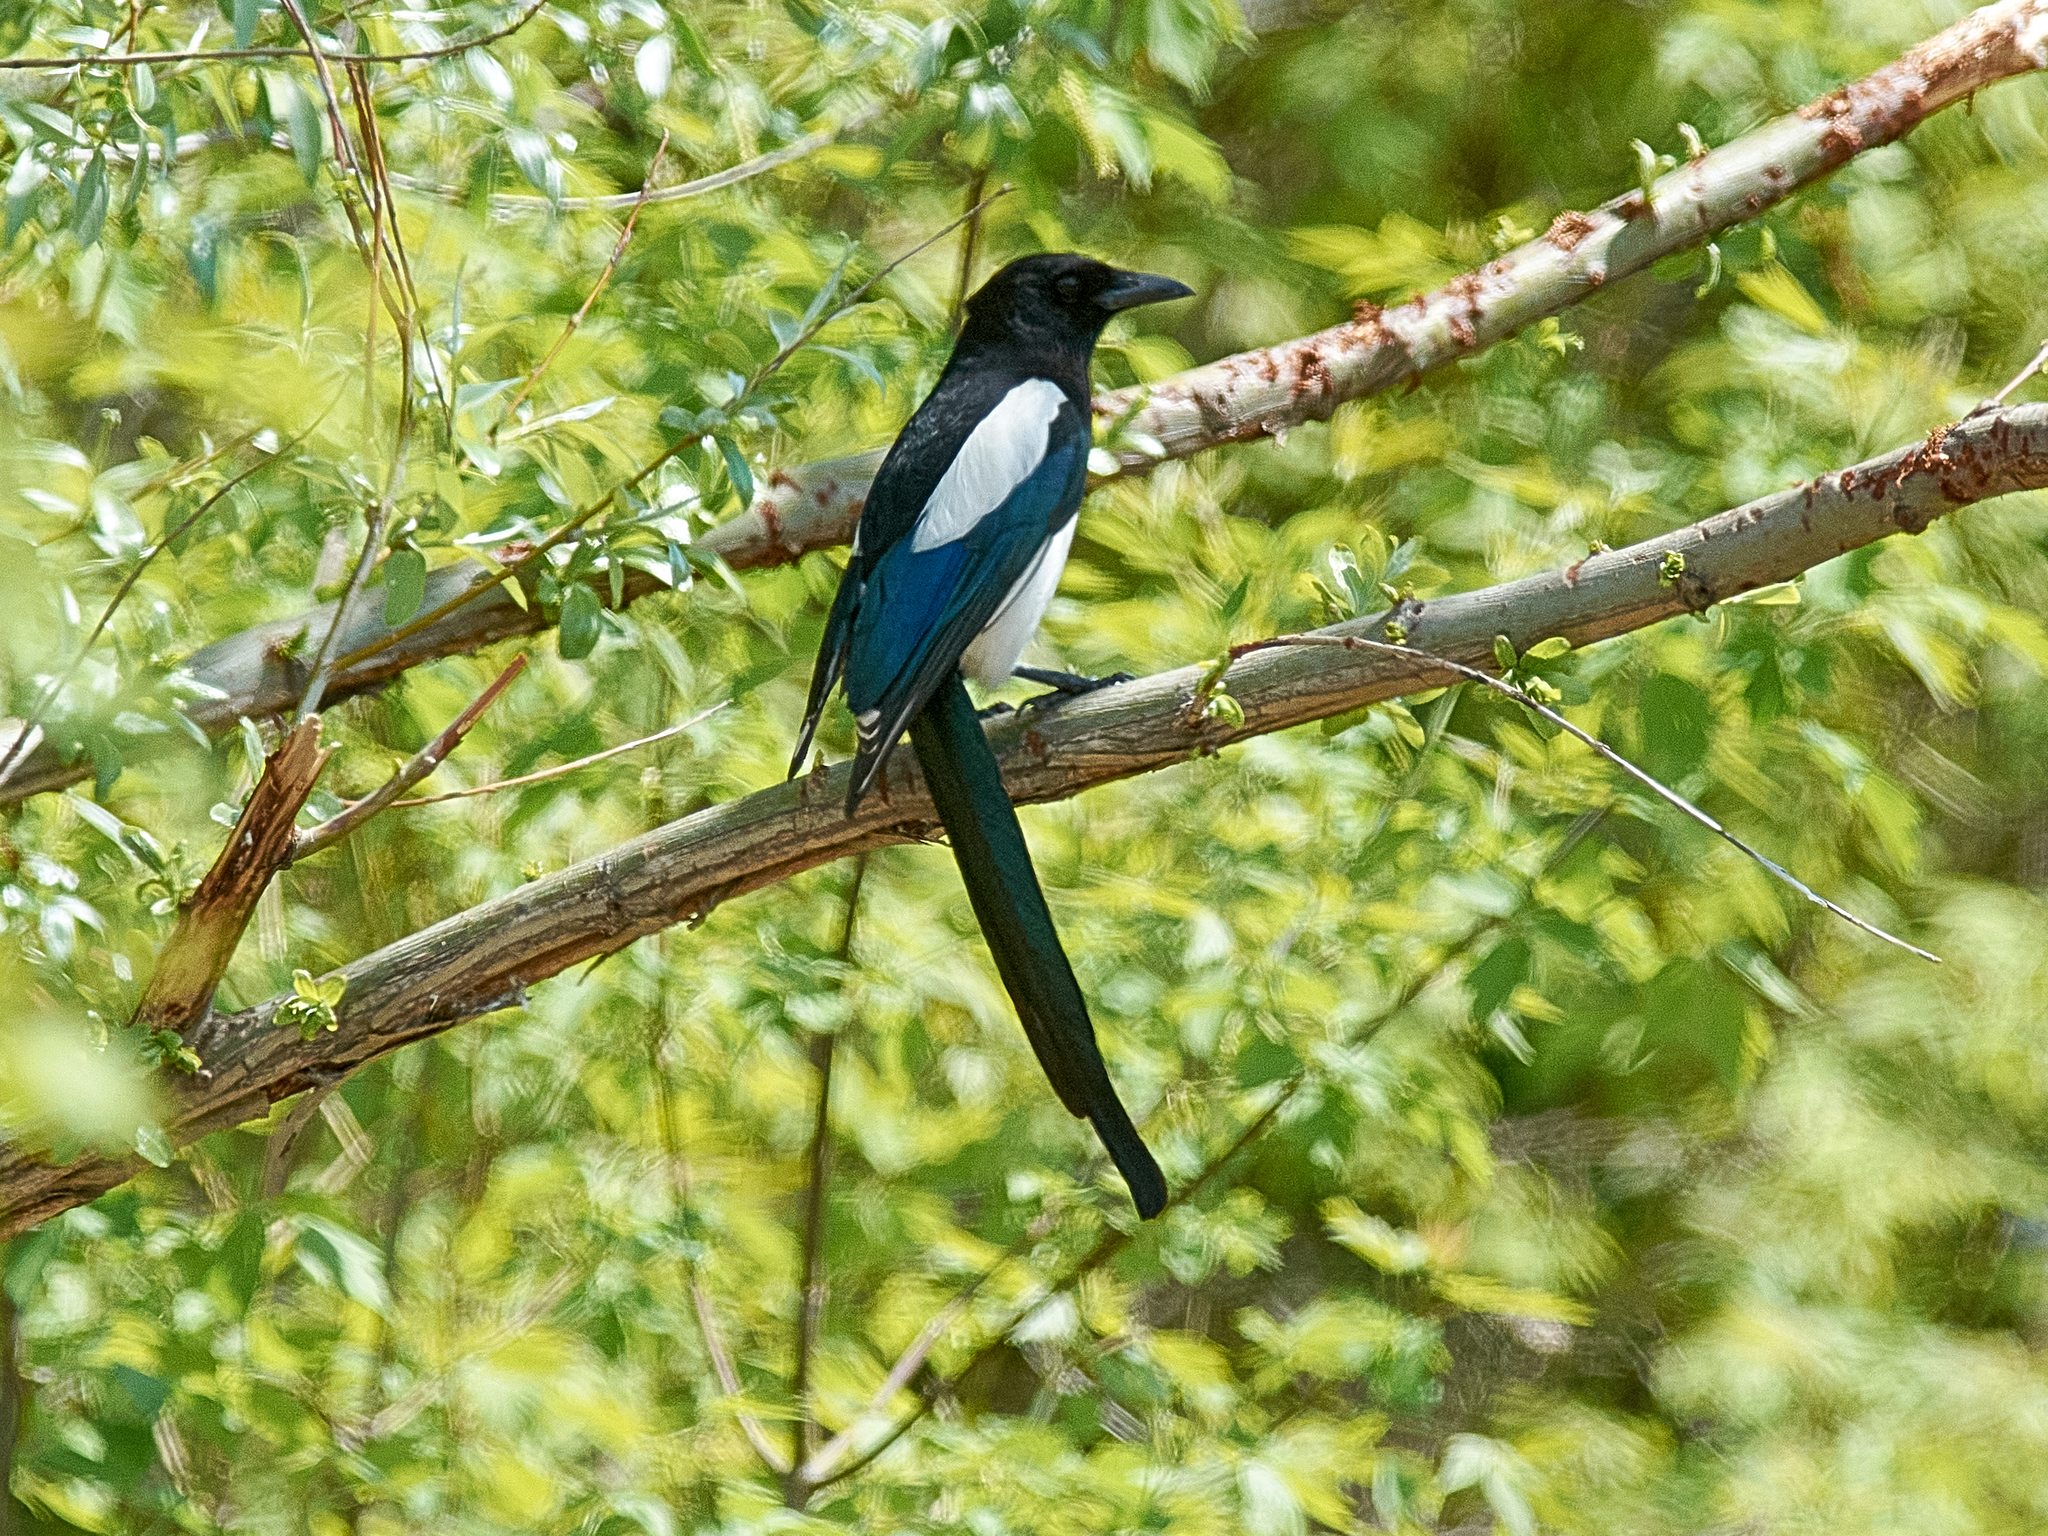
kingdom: Animalia
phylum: Chordata
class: Aves
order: Passeriformes
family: Corvidae
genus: Pica
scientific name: Pica pica
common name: Eurasian magpie
